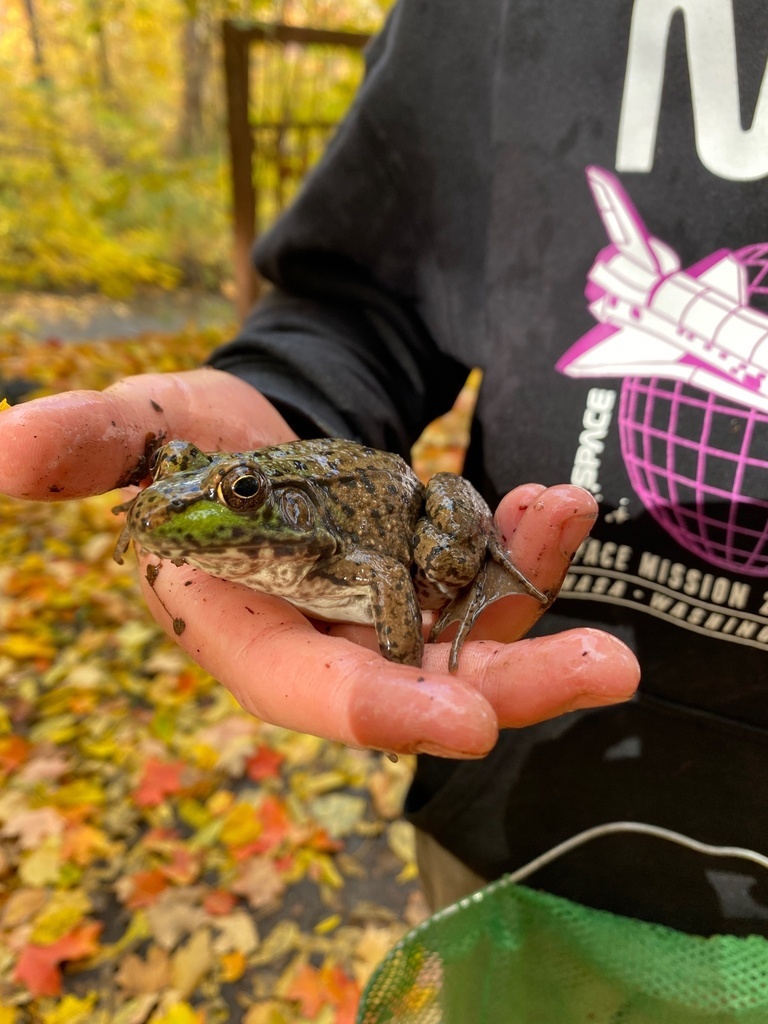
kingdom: Animalia
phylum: Chordata
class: Amphibia
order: Anura
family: Ranidae
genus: Lithobates
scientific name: Lithobates clamitans
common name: Green frog
